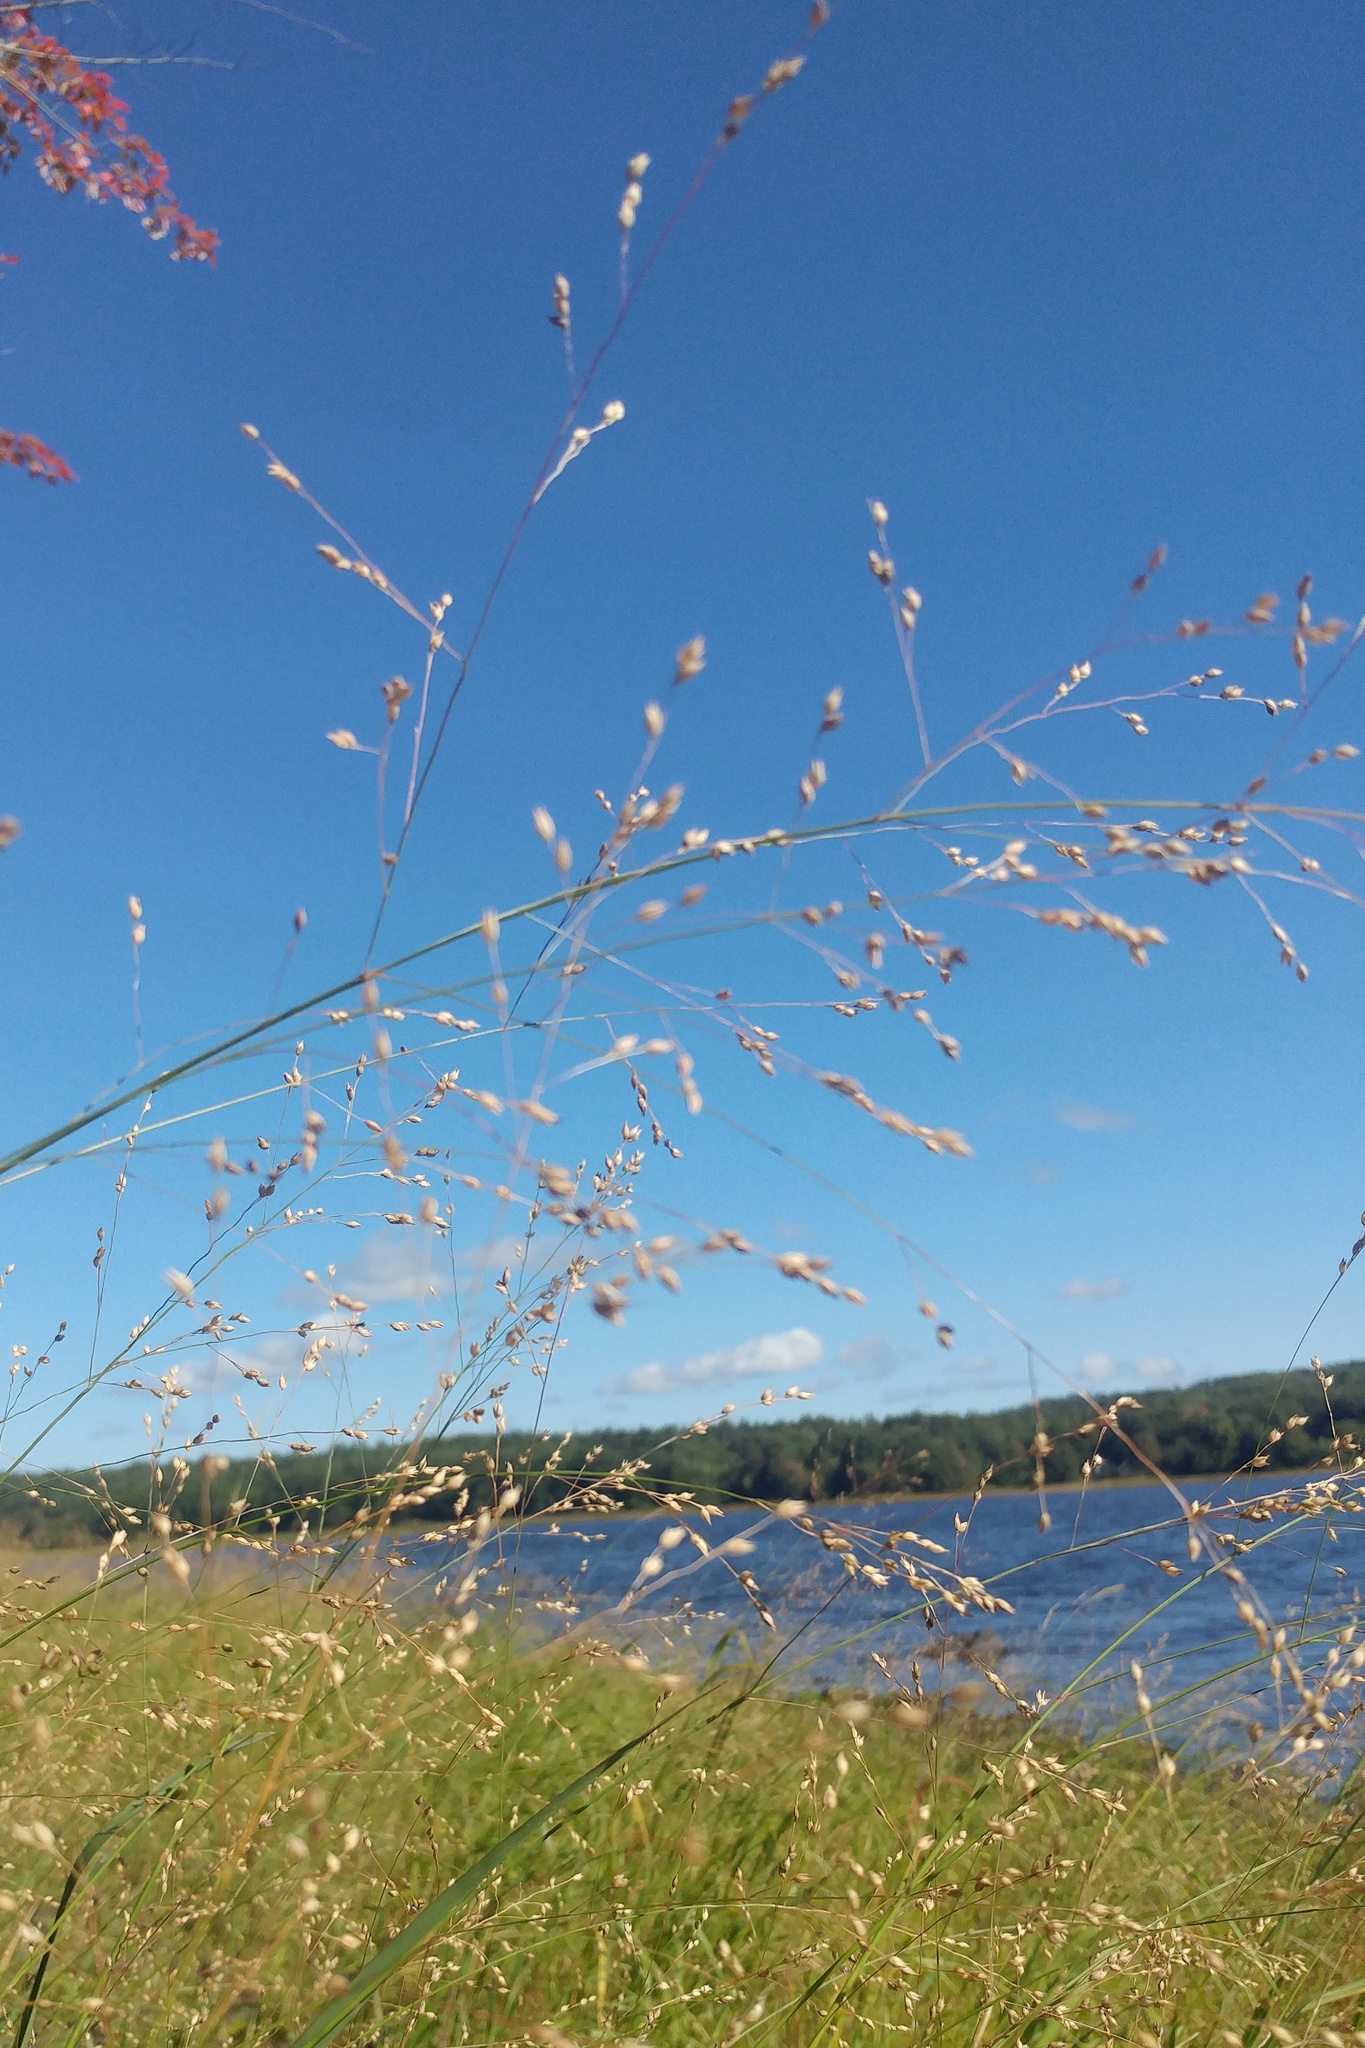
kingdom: Plantae
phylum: Tracheophyta
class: Liliopsida
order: Poales
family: Poaceae
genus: Panicum
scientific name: Panicum virgatum
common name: Switchgrass
